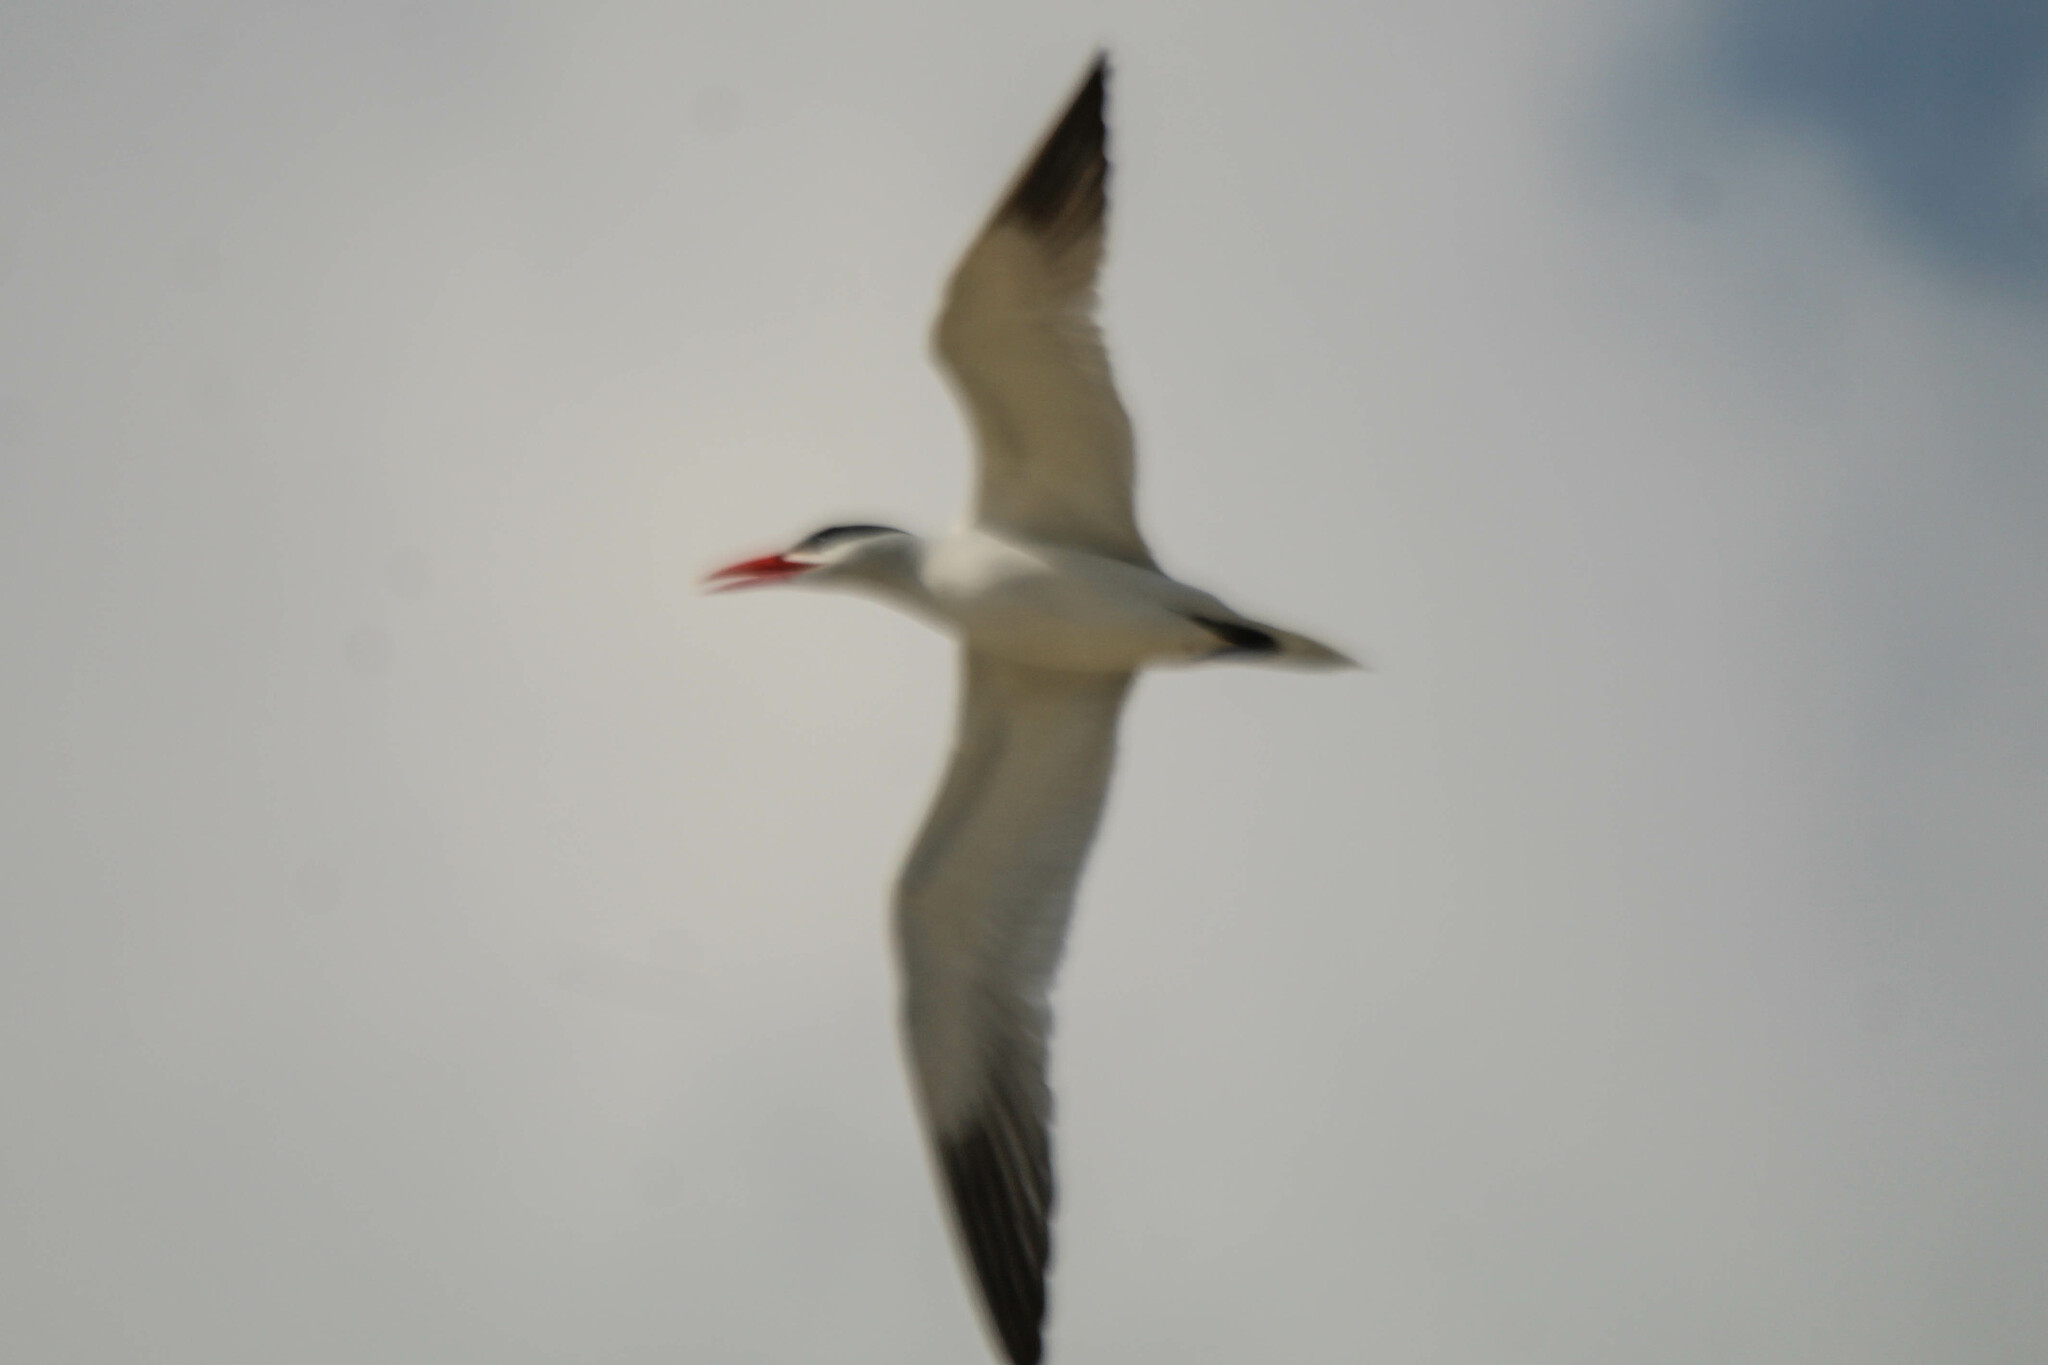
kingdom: Animalia
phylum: Chordata
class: Aves
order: Charadriiformes
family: Laridae
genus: Hydroprogne
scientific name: Hydroprogne caspia
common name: Caspian tern
